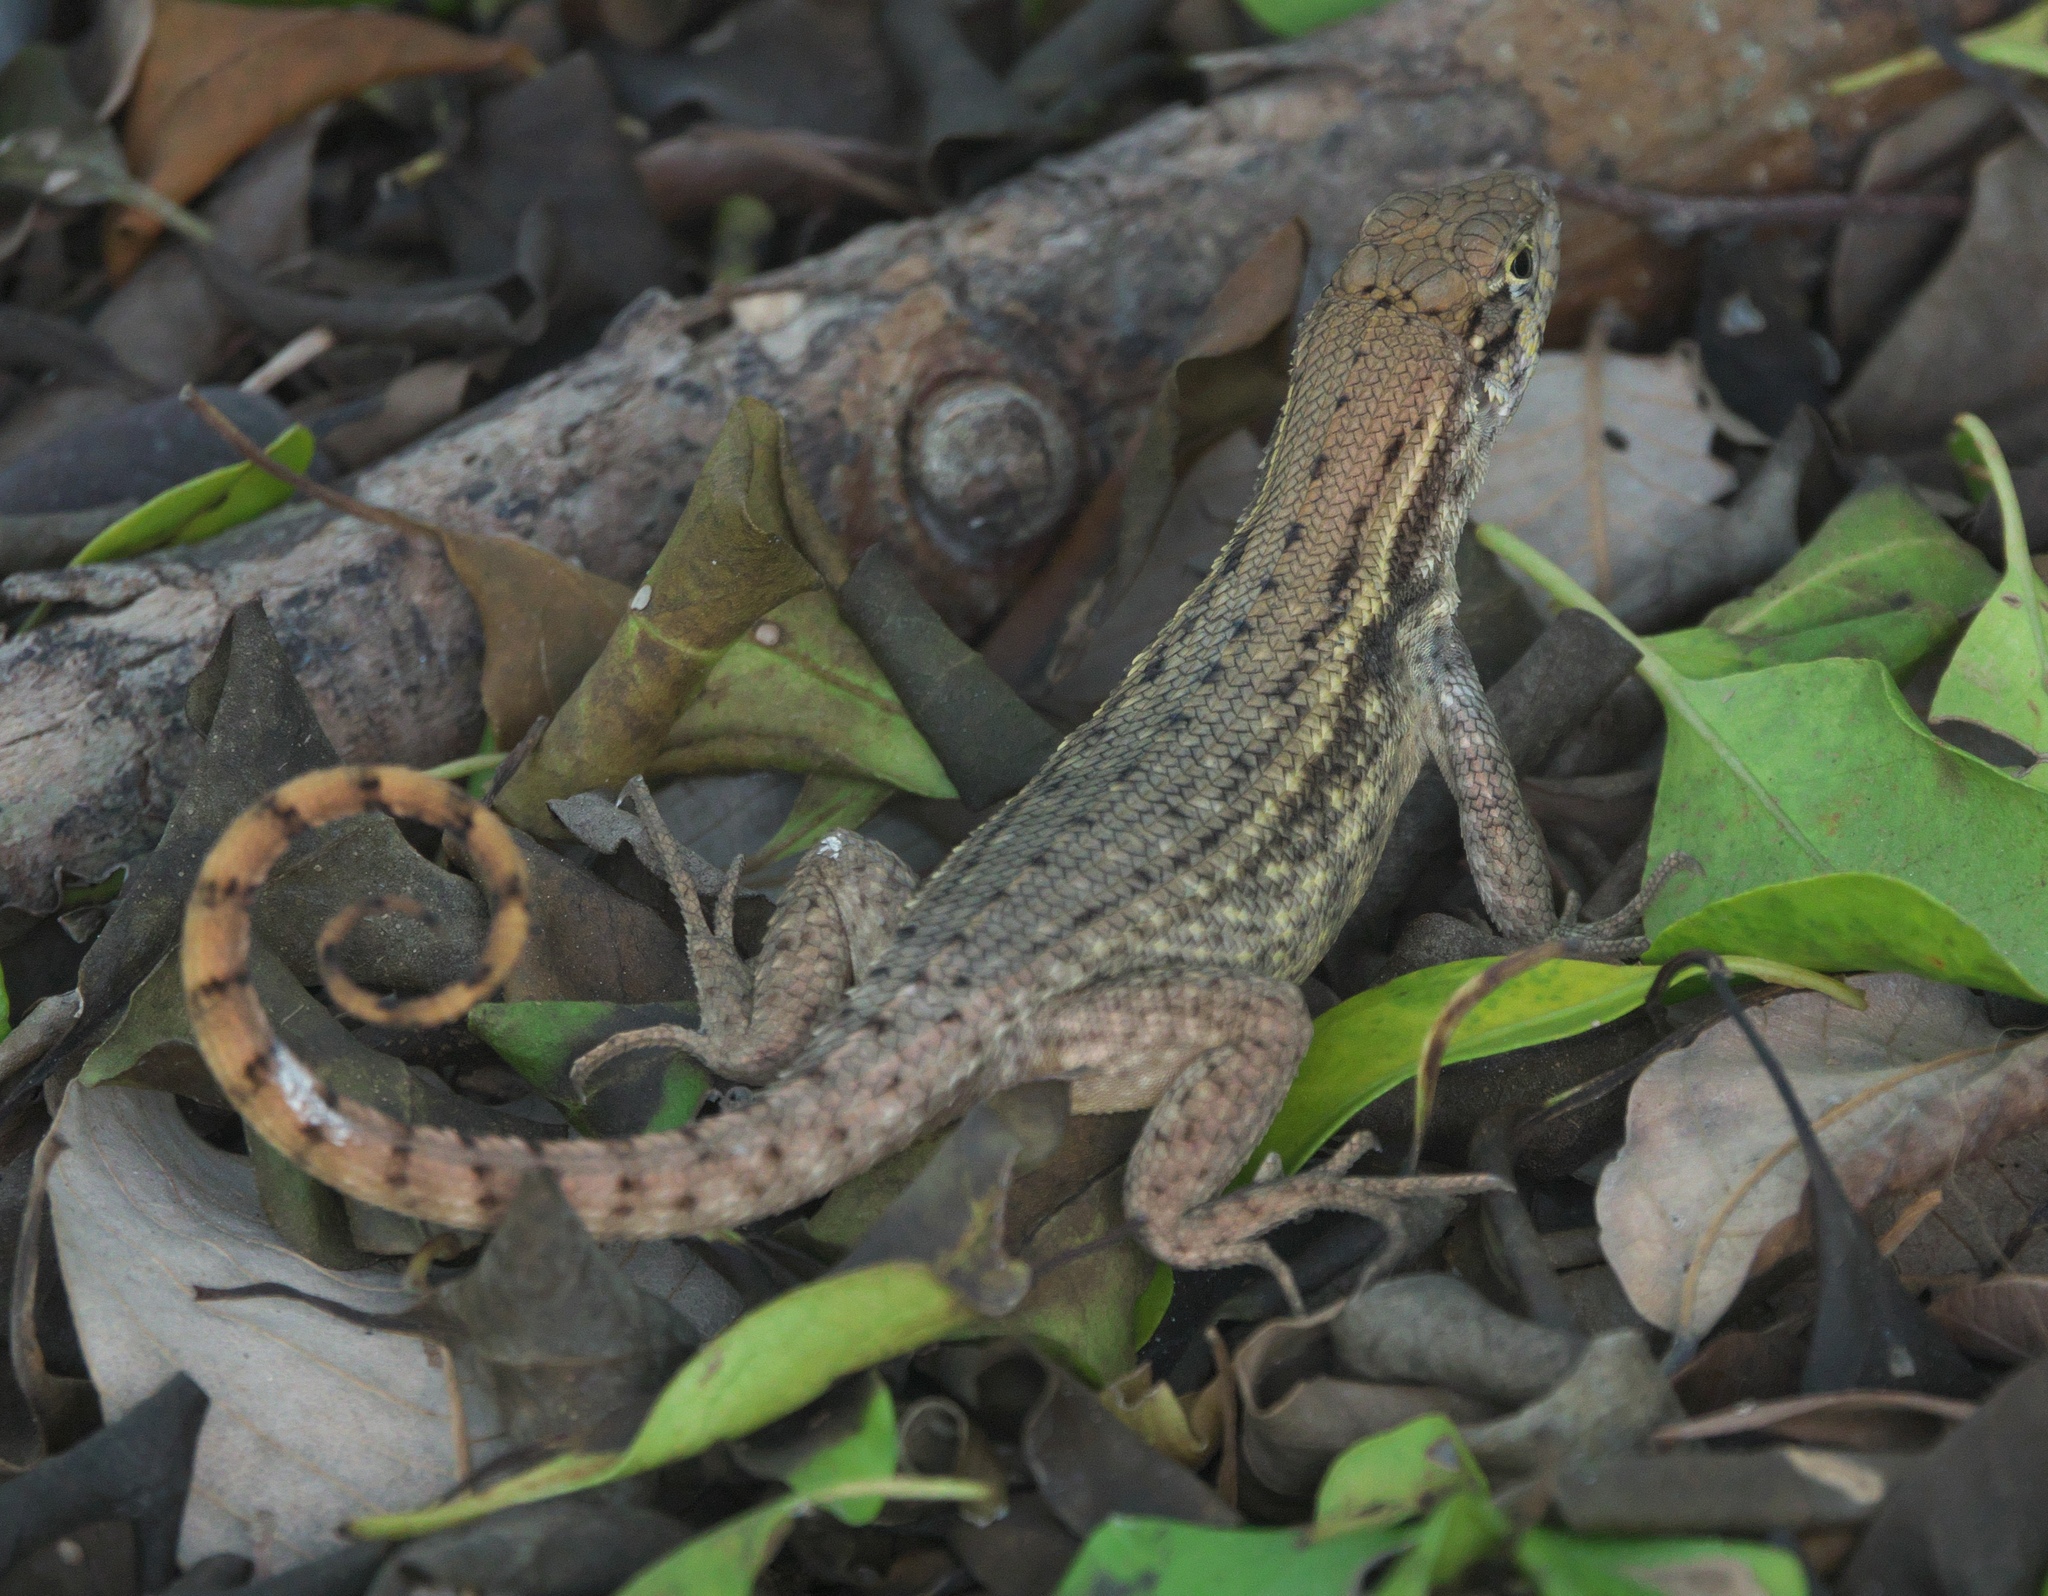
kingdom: Animalia
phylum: Chordata
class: Squamata
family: Leiocephalidae
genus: Leiocephalus
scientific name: Leiocephalus carinatus
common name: Northern curly-tailed lizard
